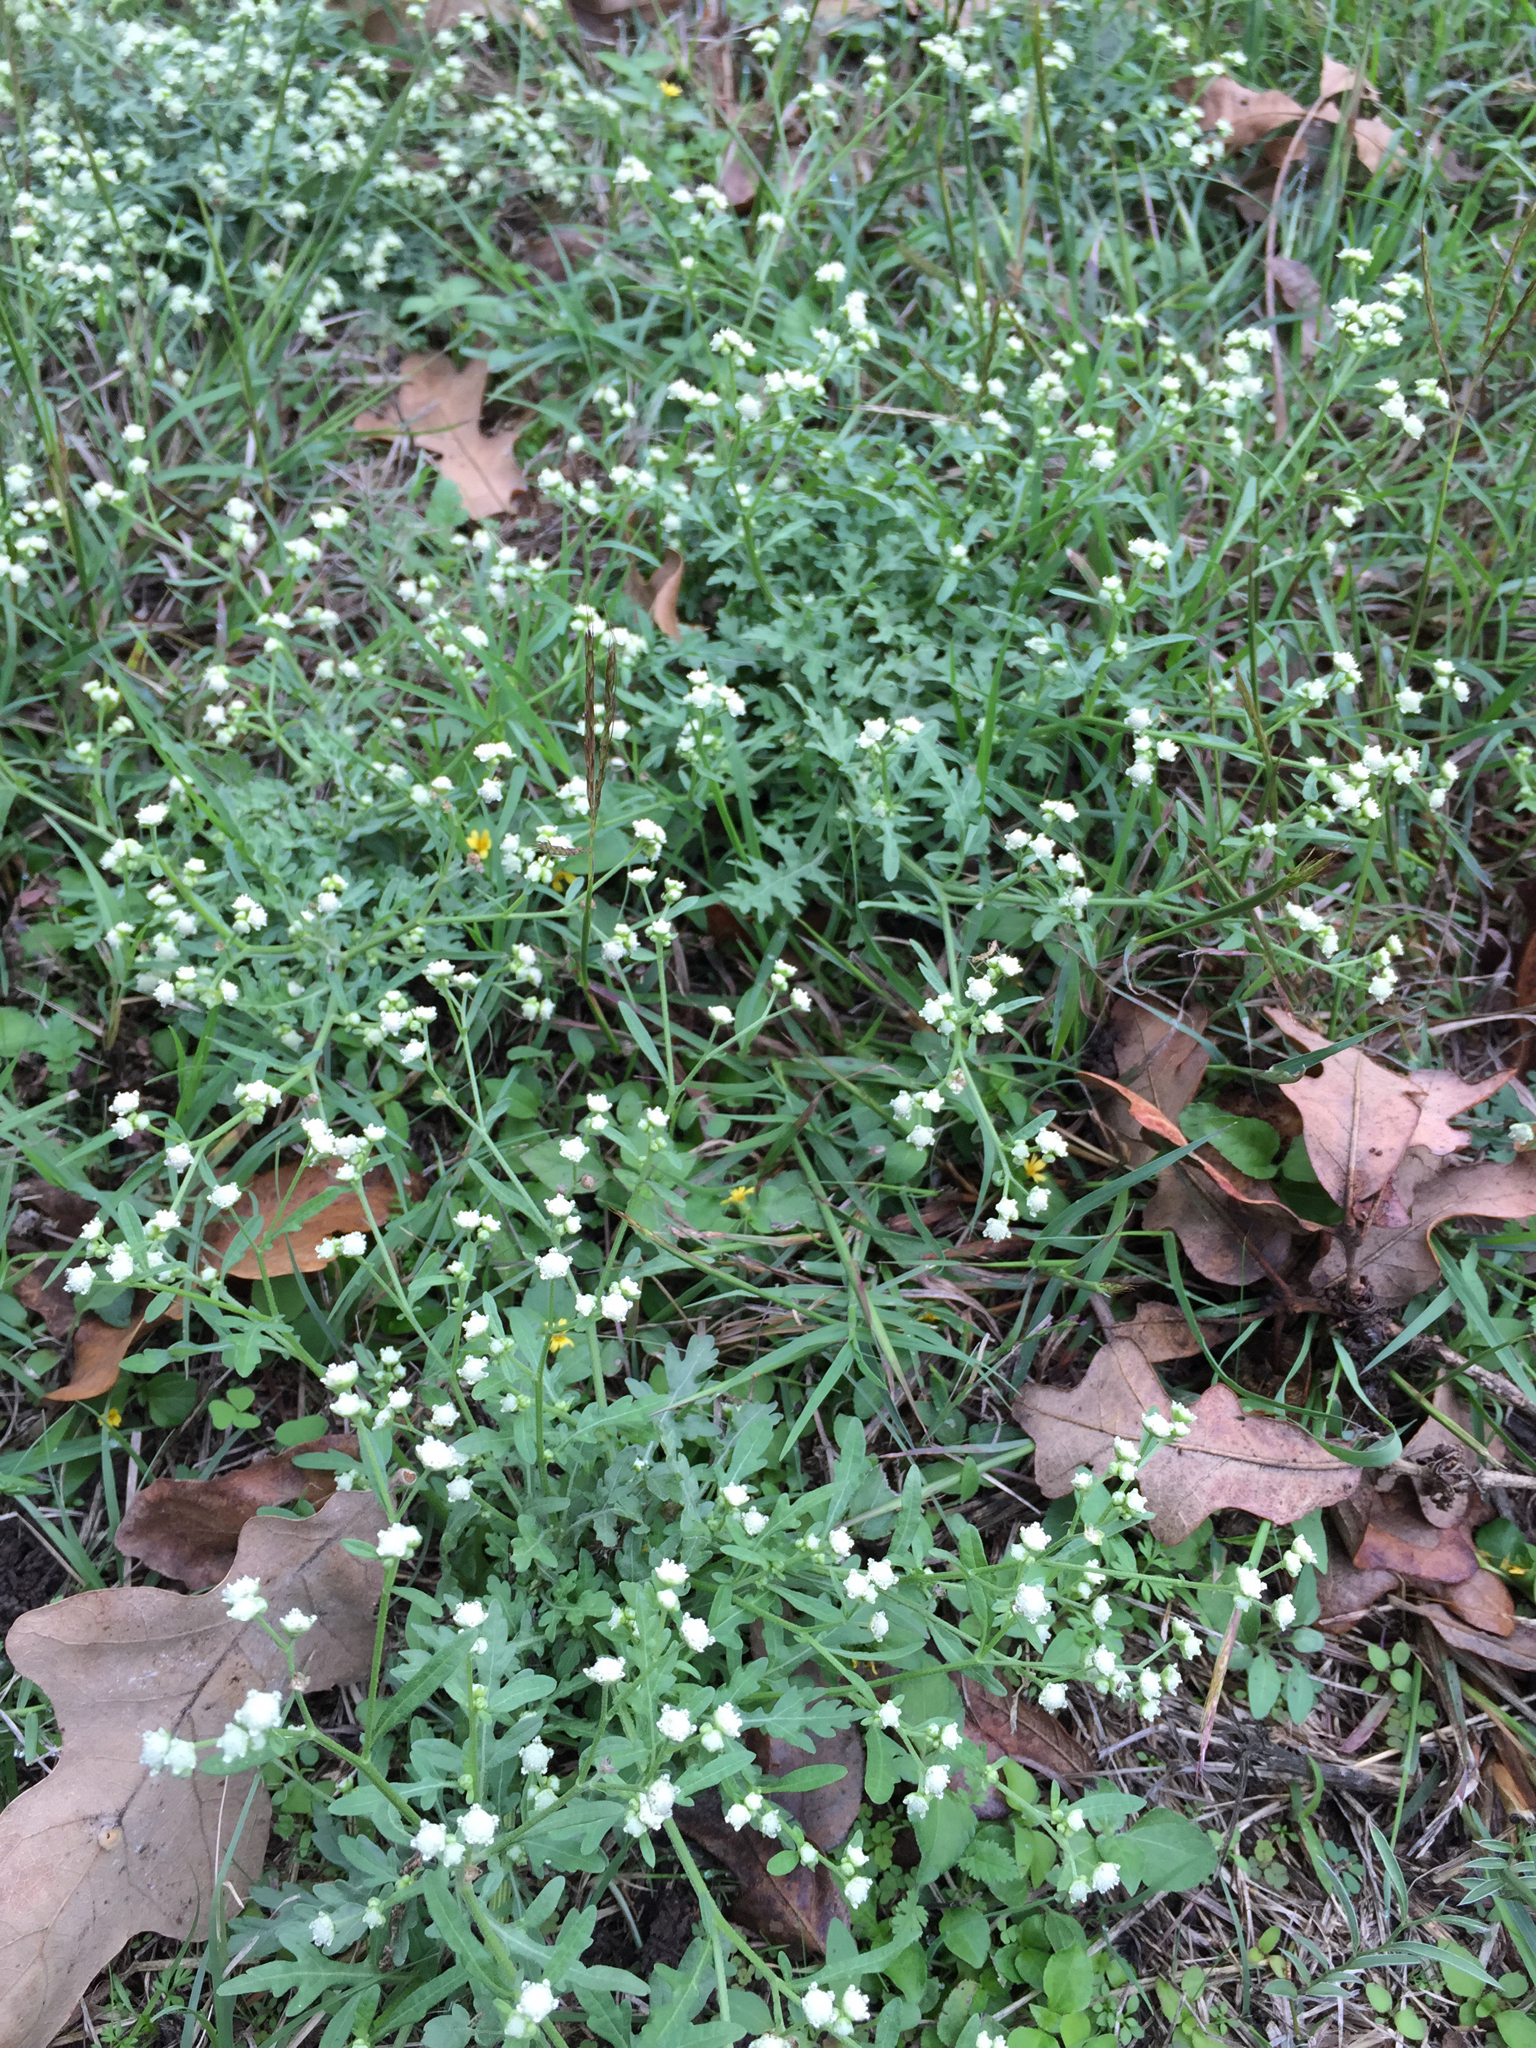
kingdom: Plantae
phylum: Tracheophyta
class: Magnoliopsida
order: Asterales
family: Asteraceae
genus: Parthenium
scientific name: Parthenium hysterophorus
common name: Santa maria feverfew
